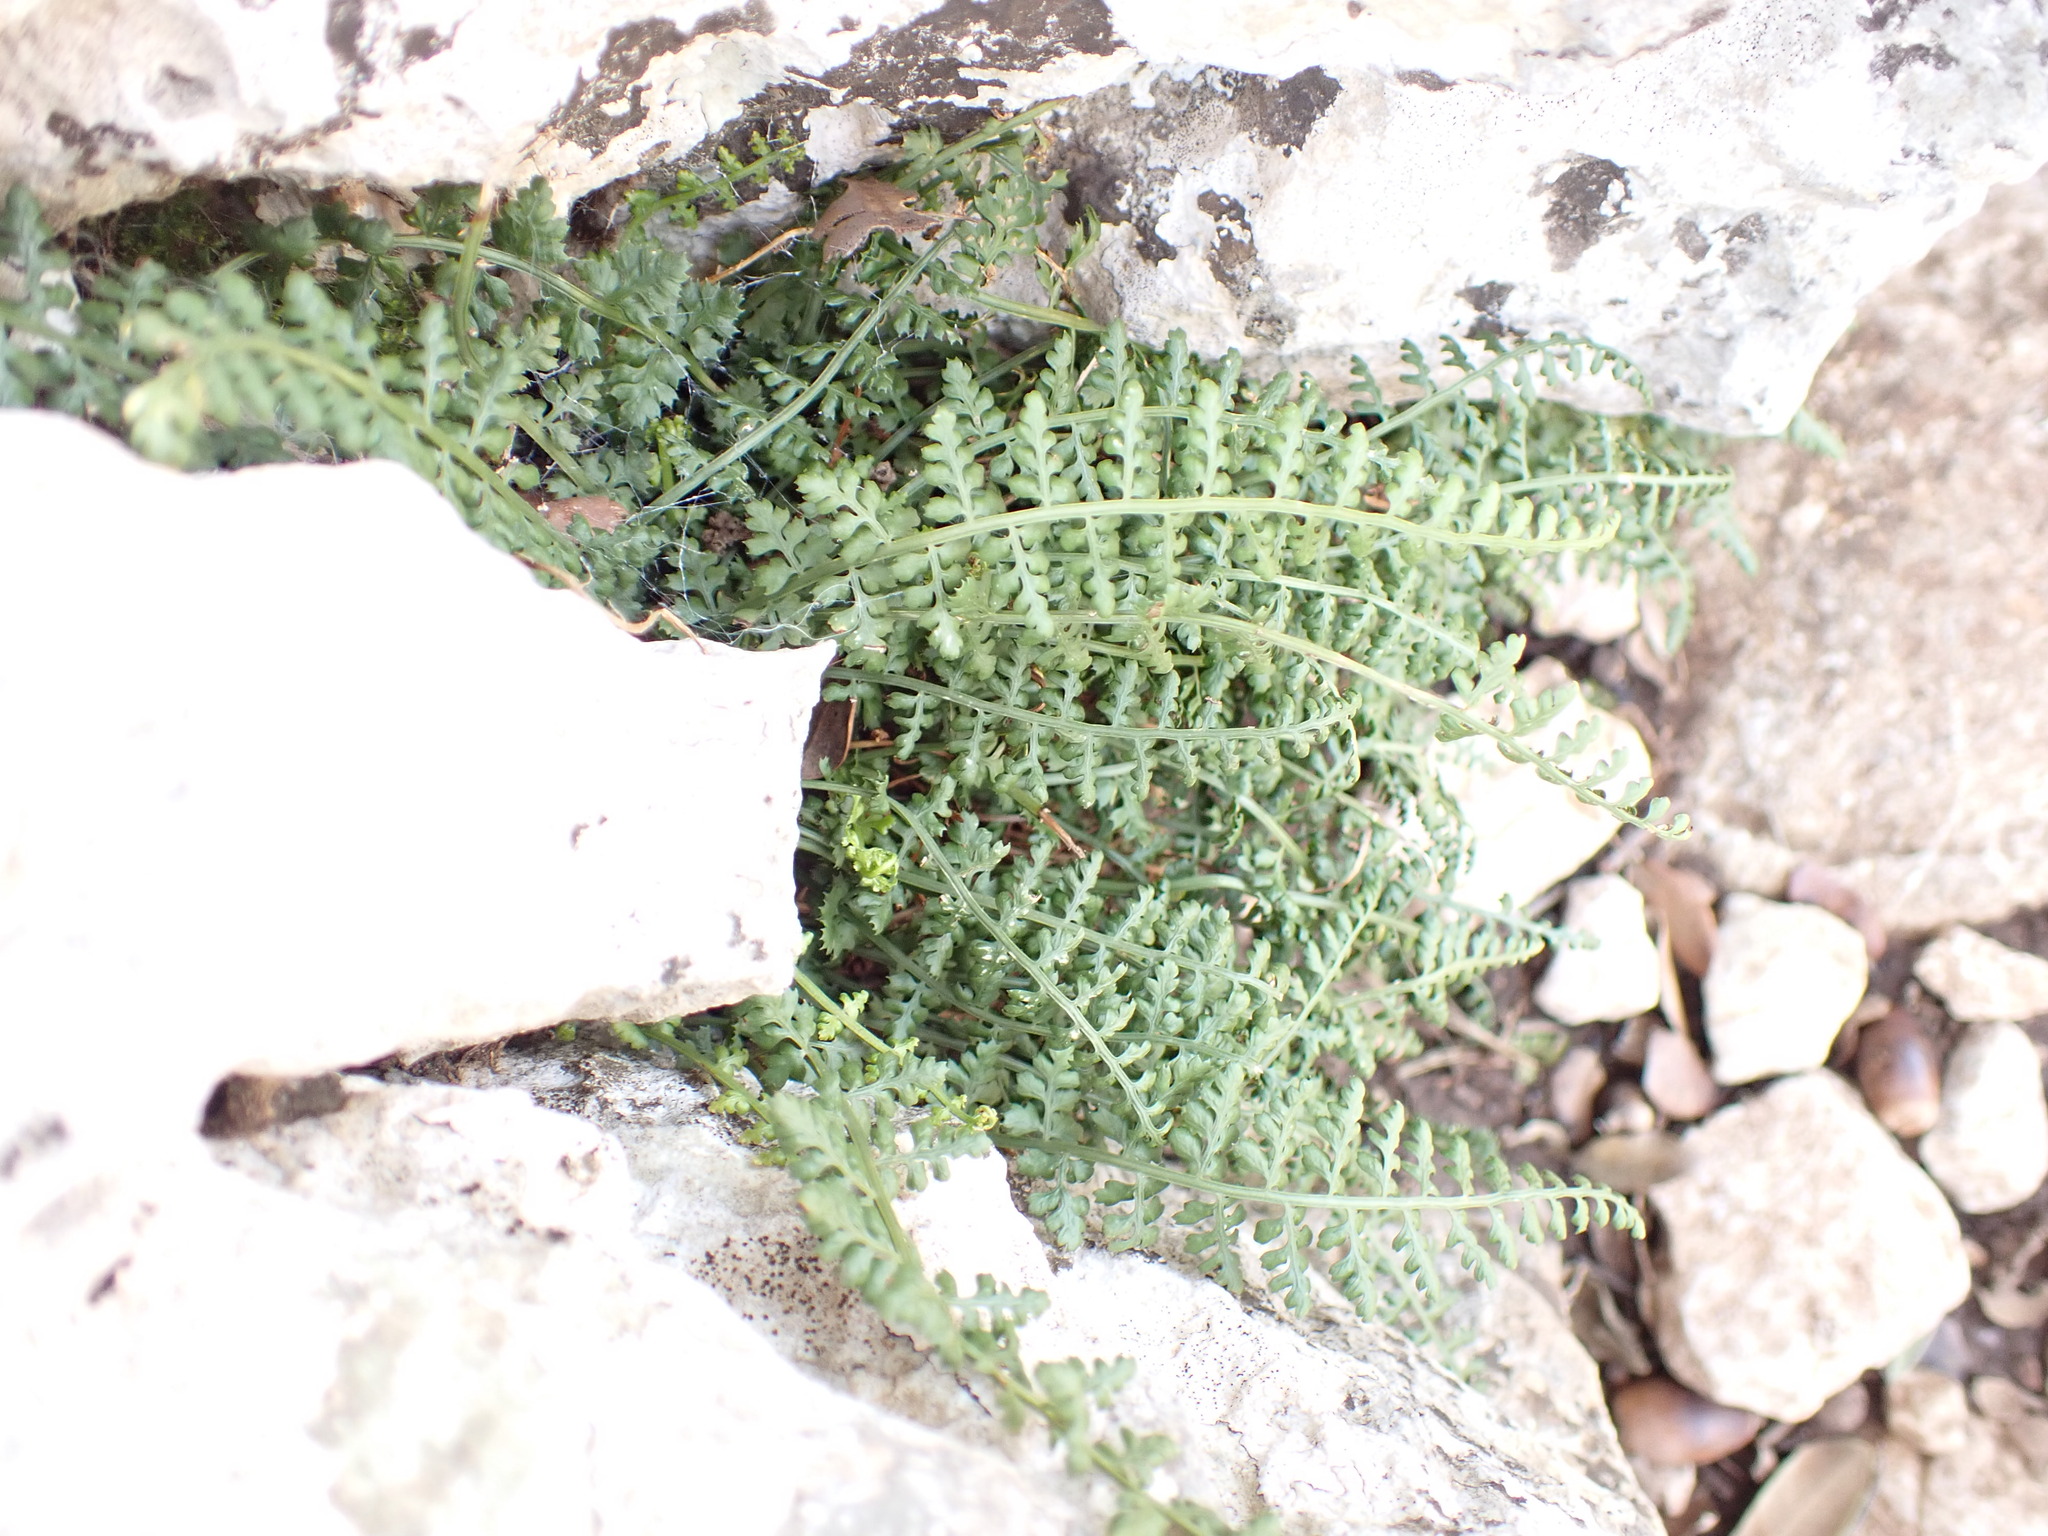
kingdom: Plantae
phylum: Tracheophyta
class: Polypodiopsida
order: Polypodiales
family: Aspleniaceae
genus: Asplenium
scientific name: Asplenium fontanum
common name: Fountain spleenwort
